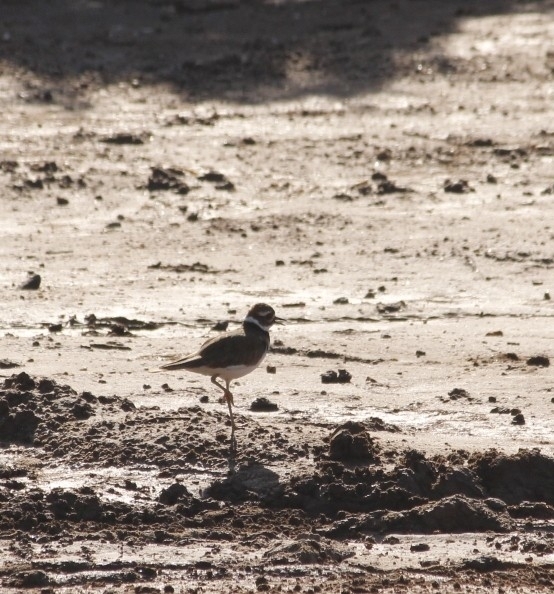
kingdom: Animalia
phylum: Chordata
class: Aves
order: Charadriiformes
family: Charadriidae
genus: Charadrius
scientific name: Charadrius vociferus
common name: Killdeer
